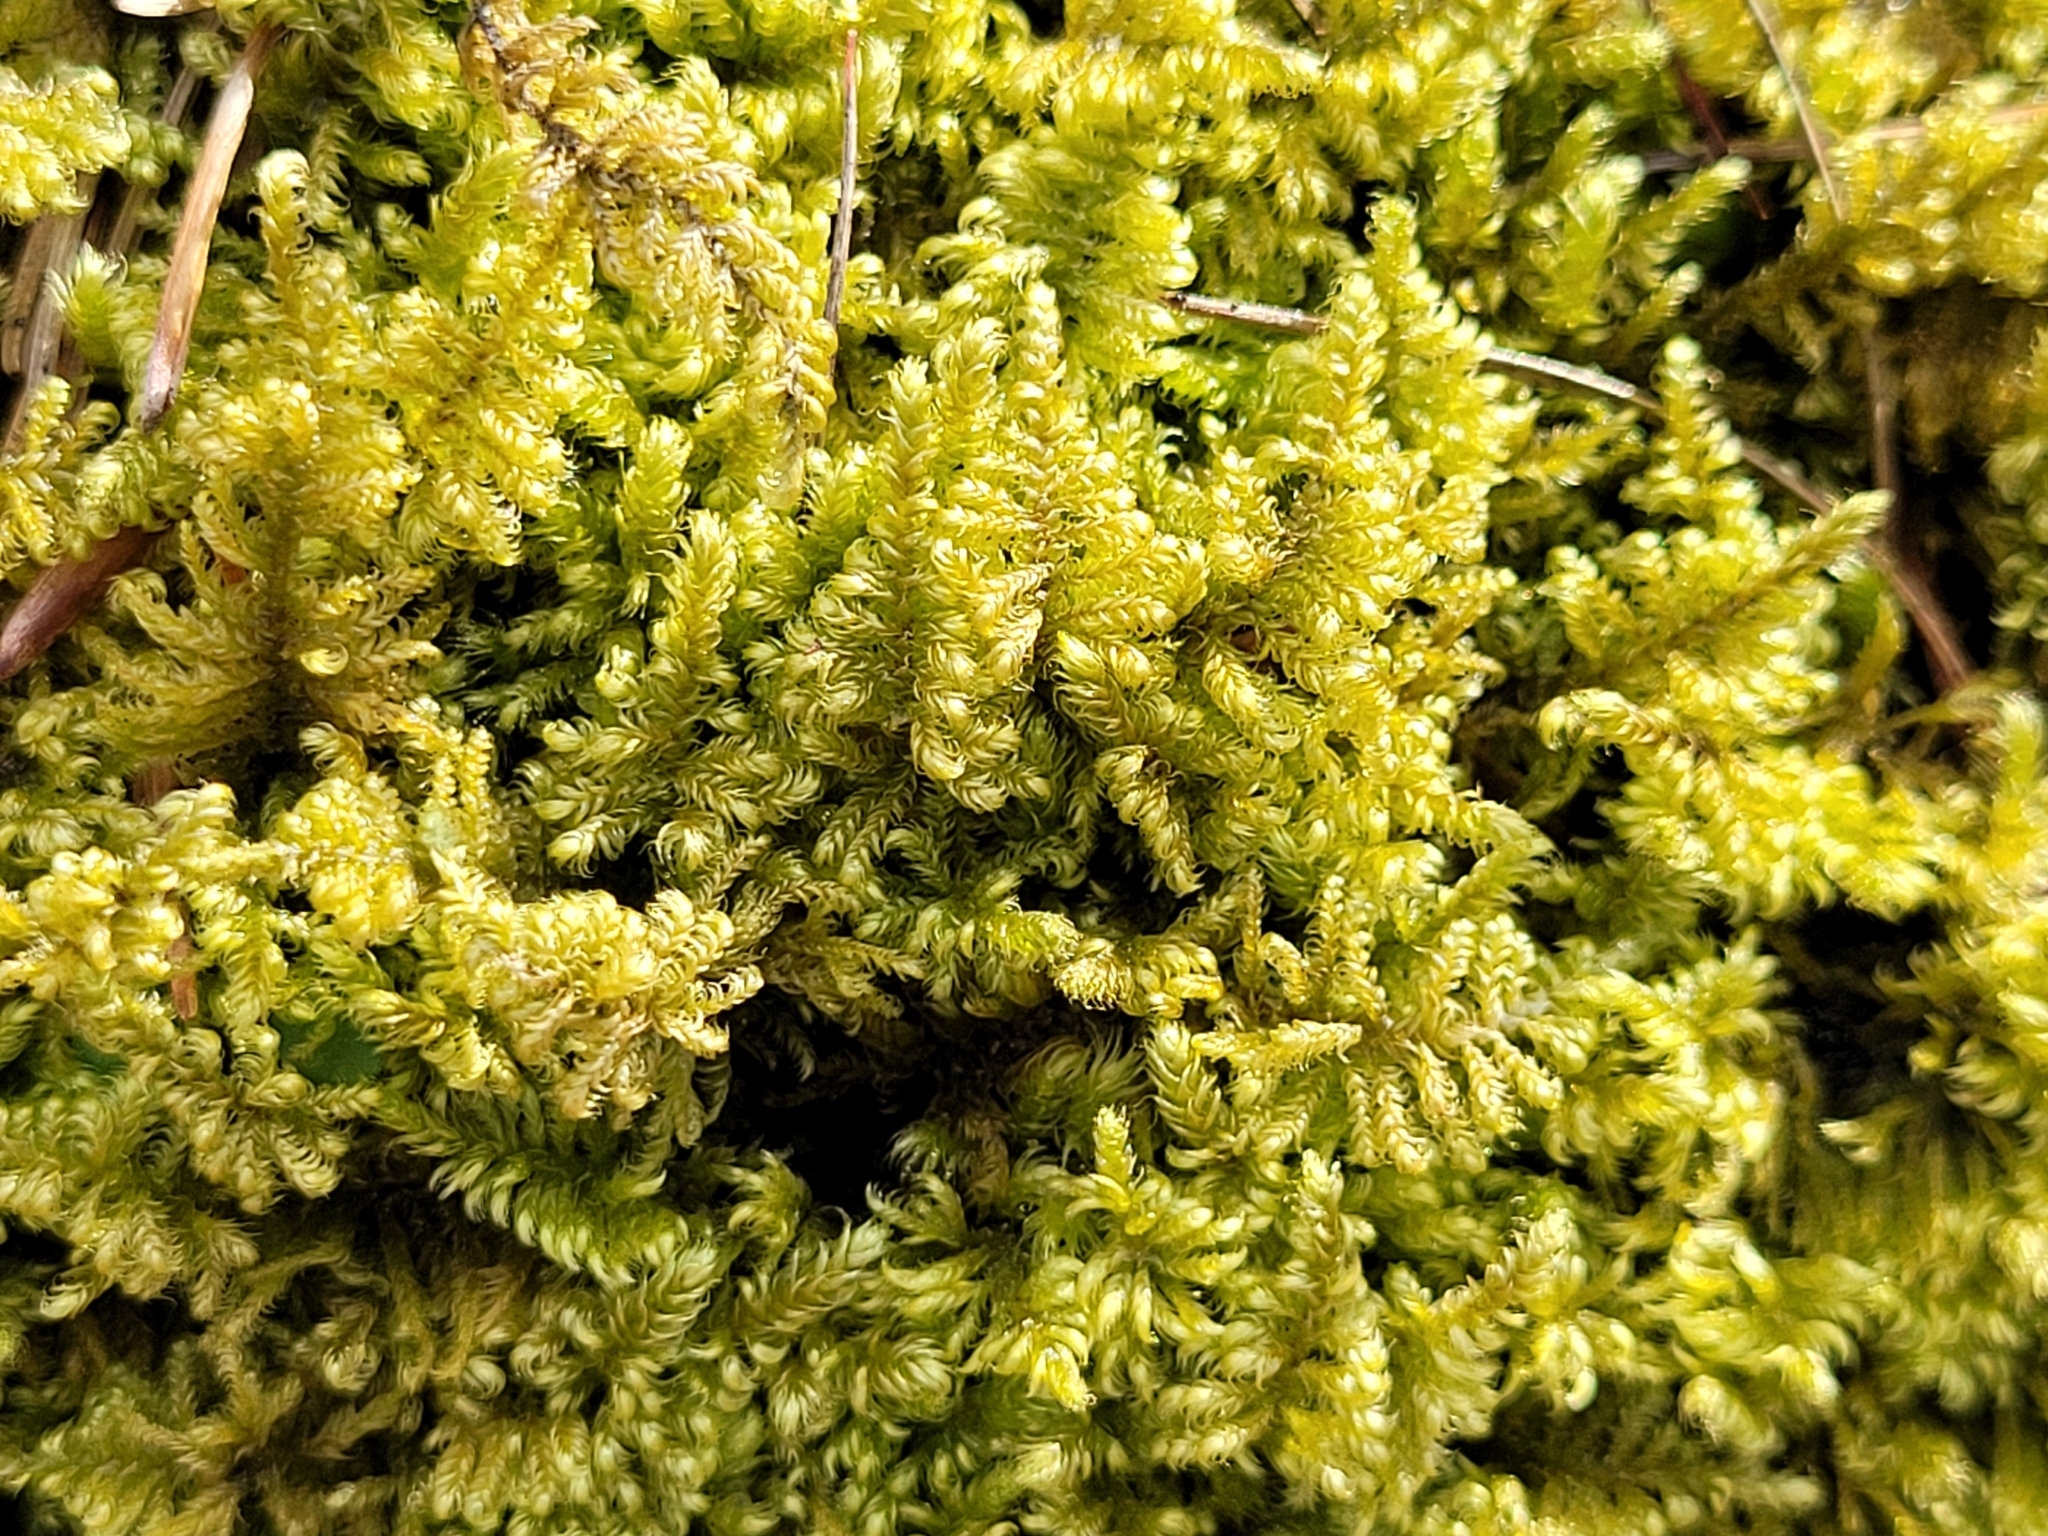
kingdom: Plantae
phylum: Bryophyta
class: Bryopsida
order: Hypnales
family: Myuriaceae
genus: Ctenidium
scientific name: Ctenidium molluscum
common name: Chalk comb-moss
